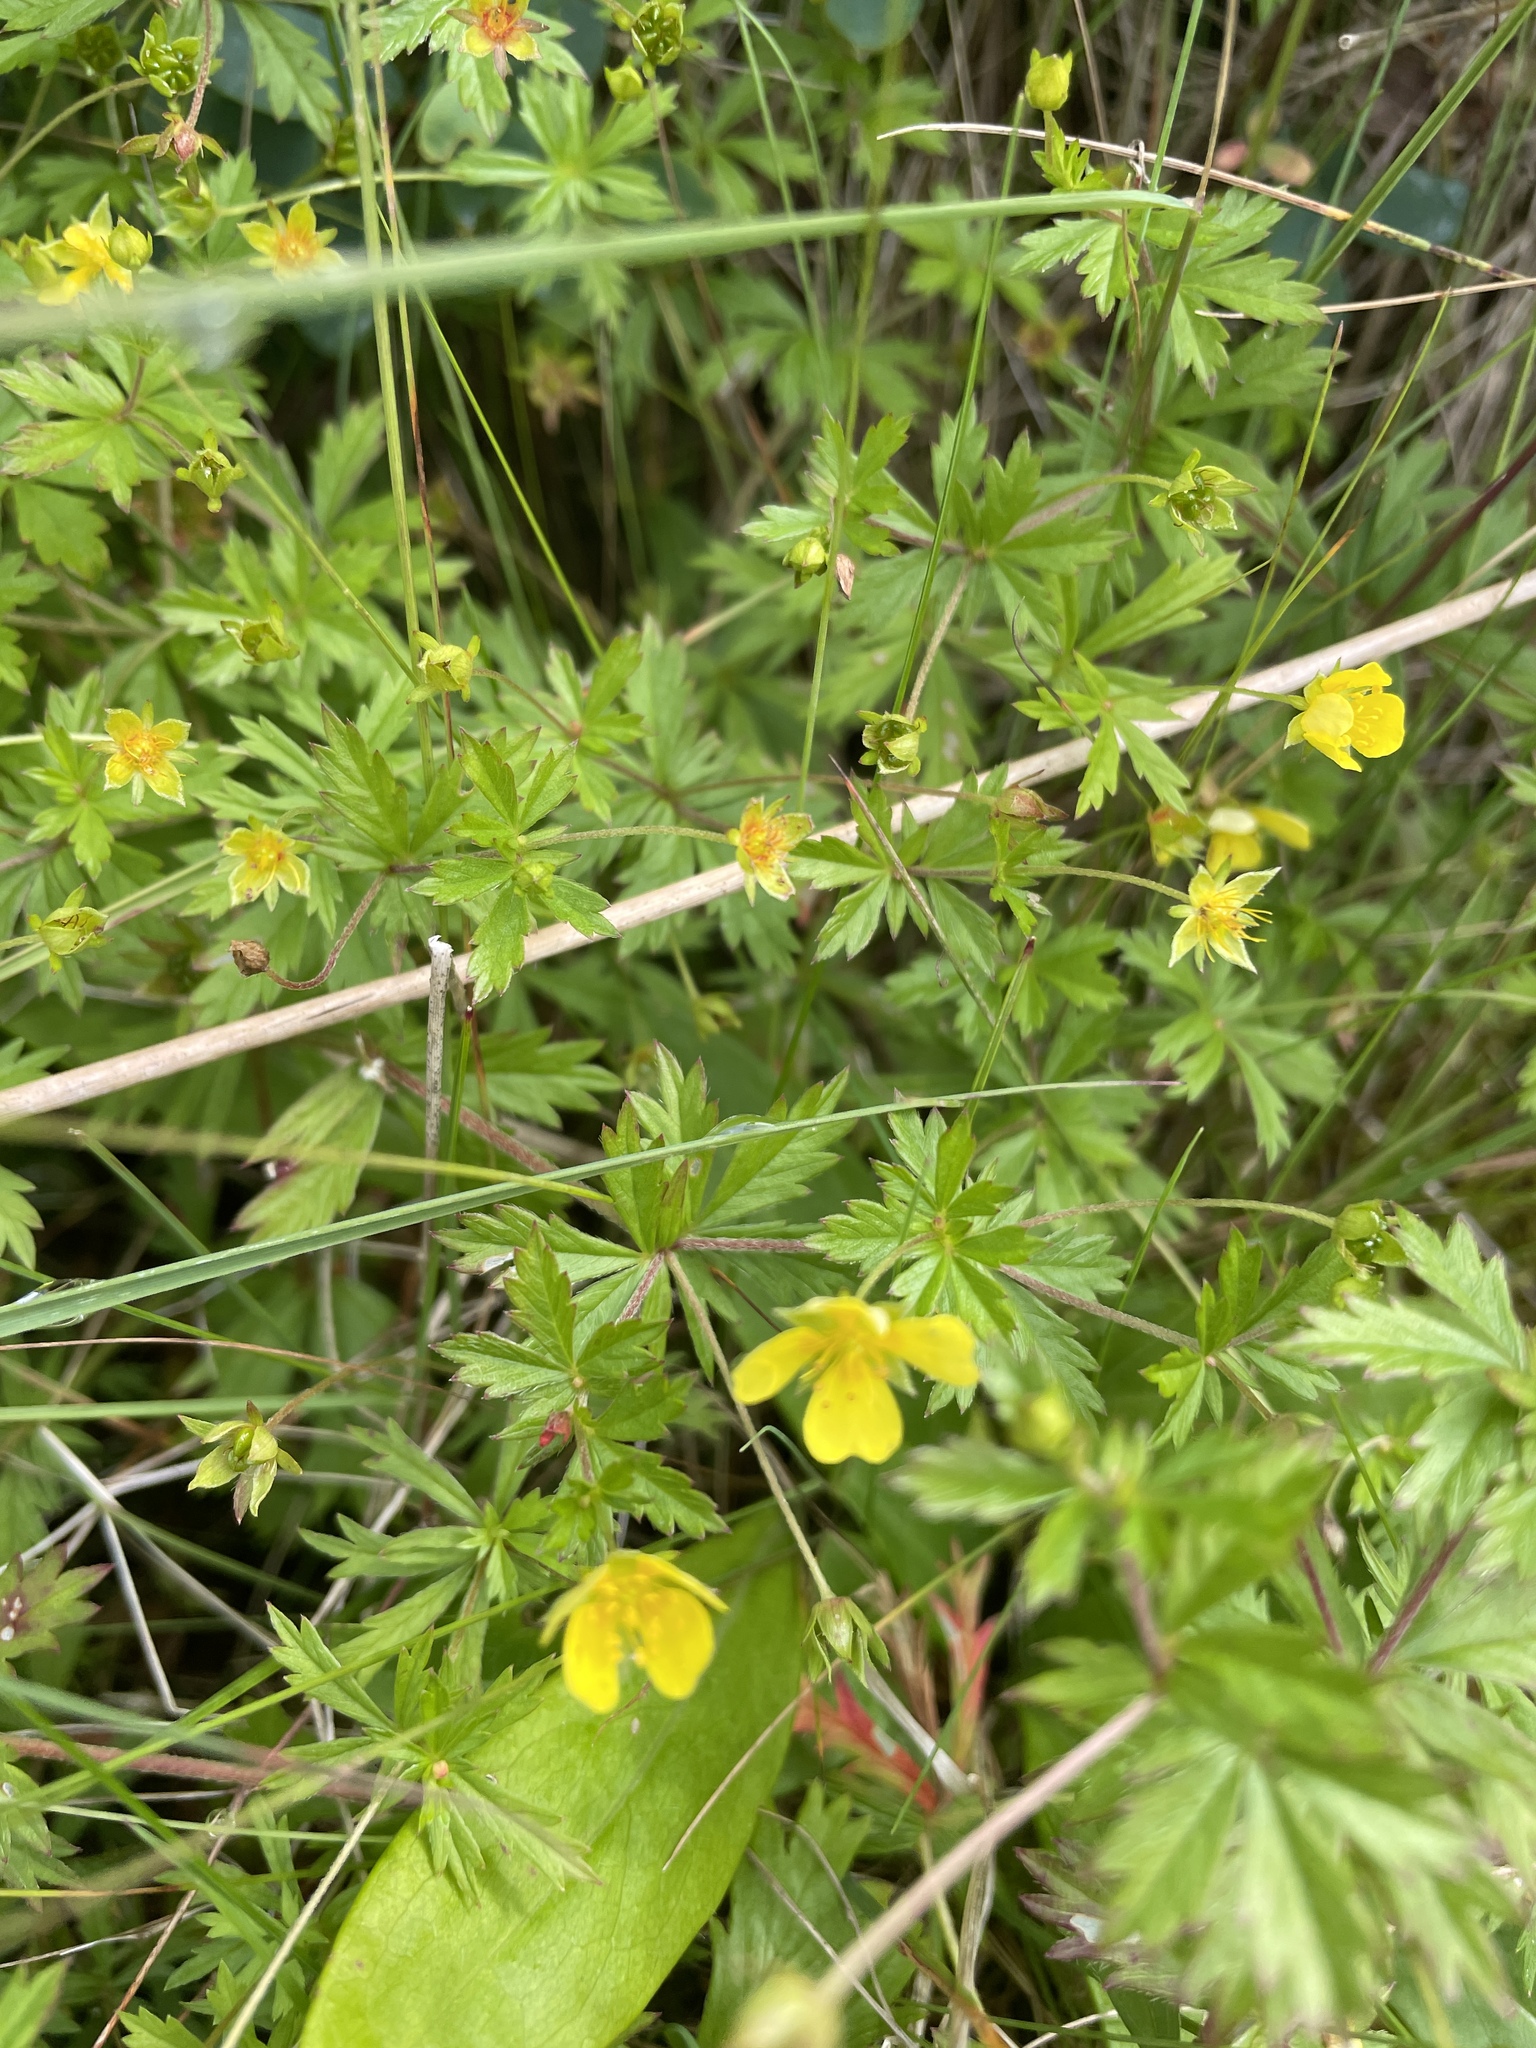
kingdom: Plantae
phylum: Tracheophyta
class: Magnoliopsida
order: Rosales
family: Rosaceae
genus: Potentilla
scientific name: Potentilla erecta
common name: Tormentil
